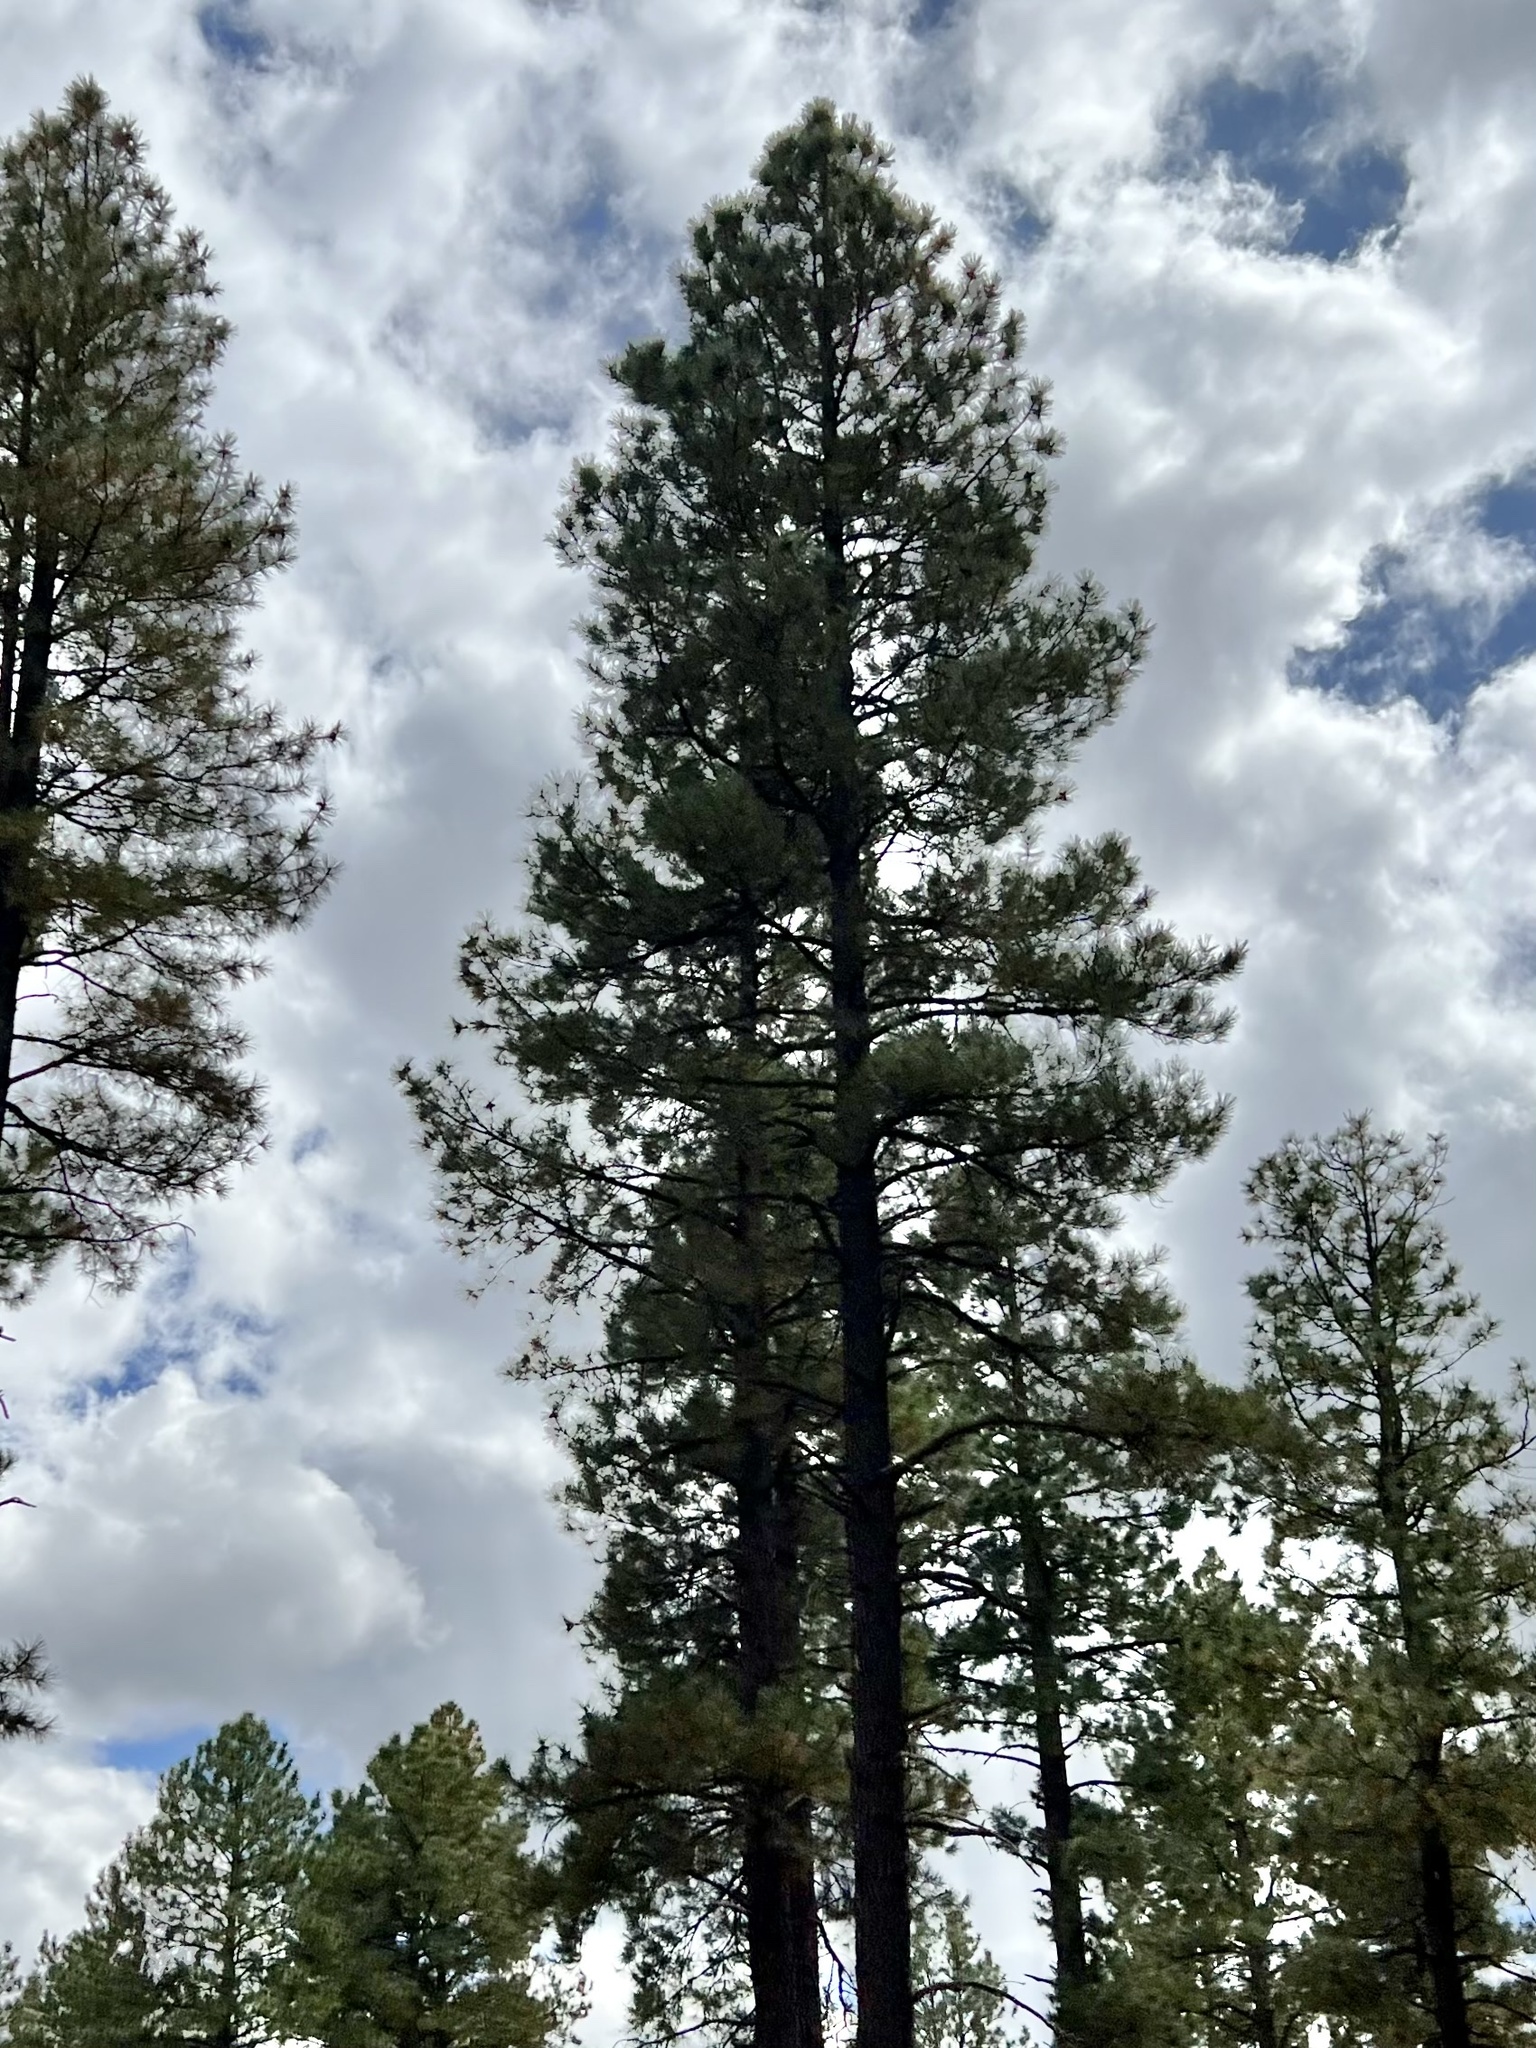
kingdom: Plantae
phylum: Tracheophyta
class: Pinopsida
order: Pinales
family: Pinaceae
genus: Pinus
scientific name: Pinus ponderosa
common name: Western yellow-pine
